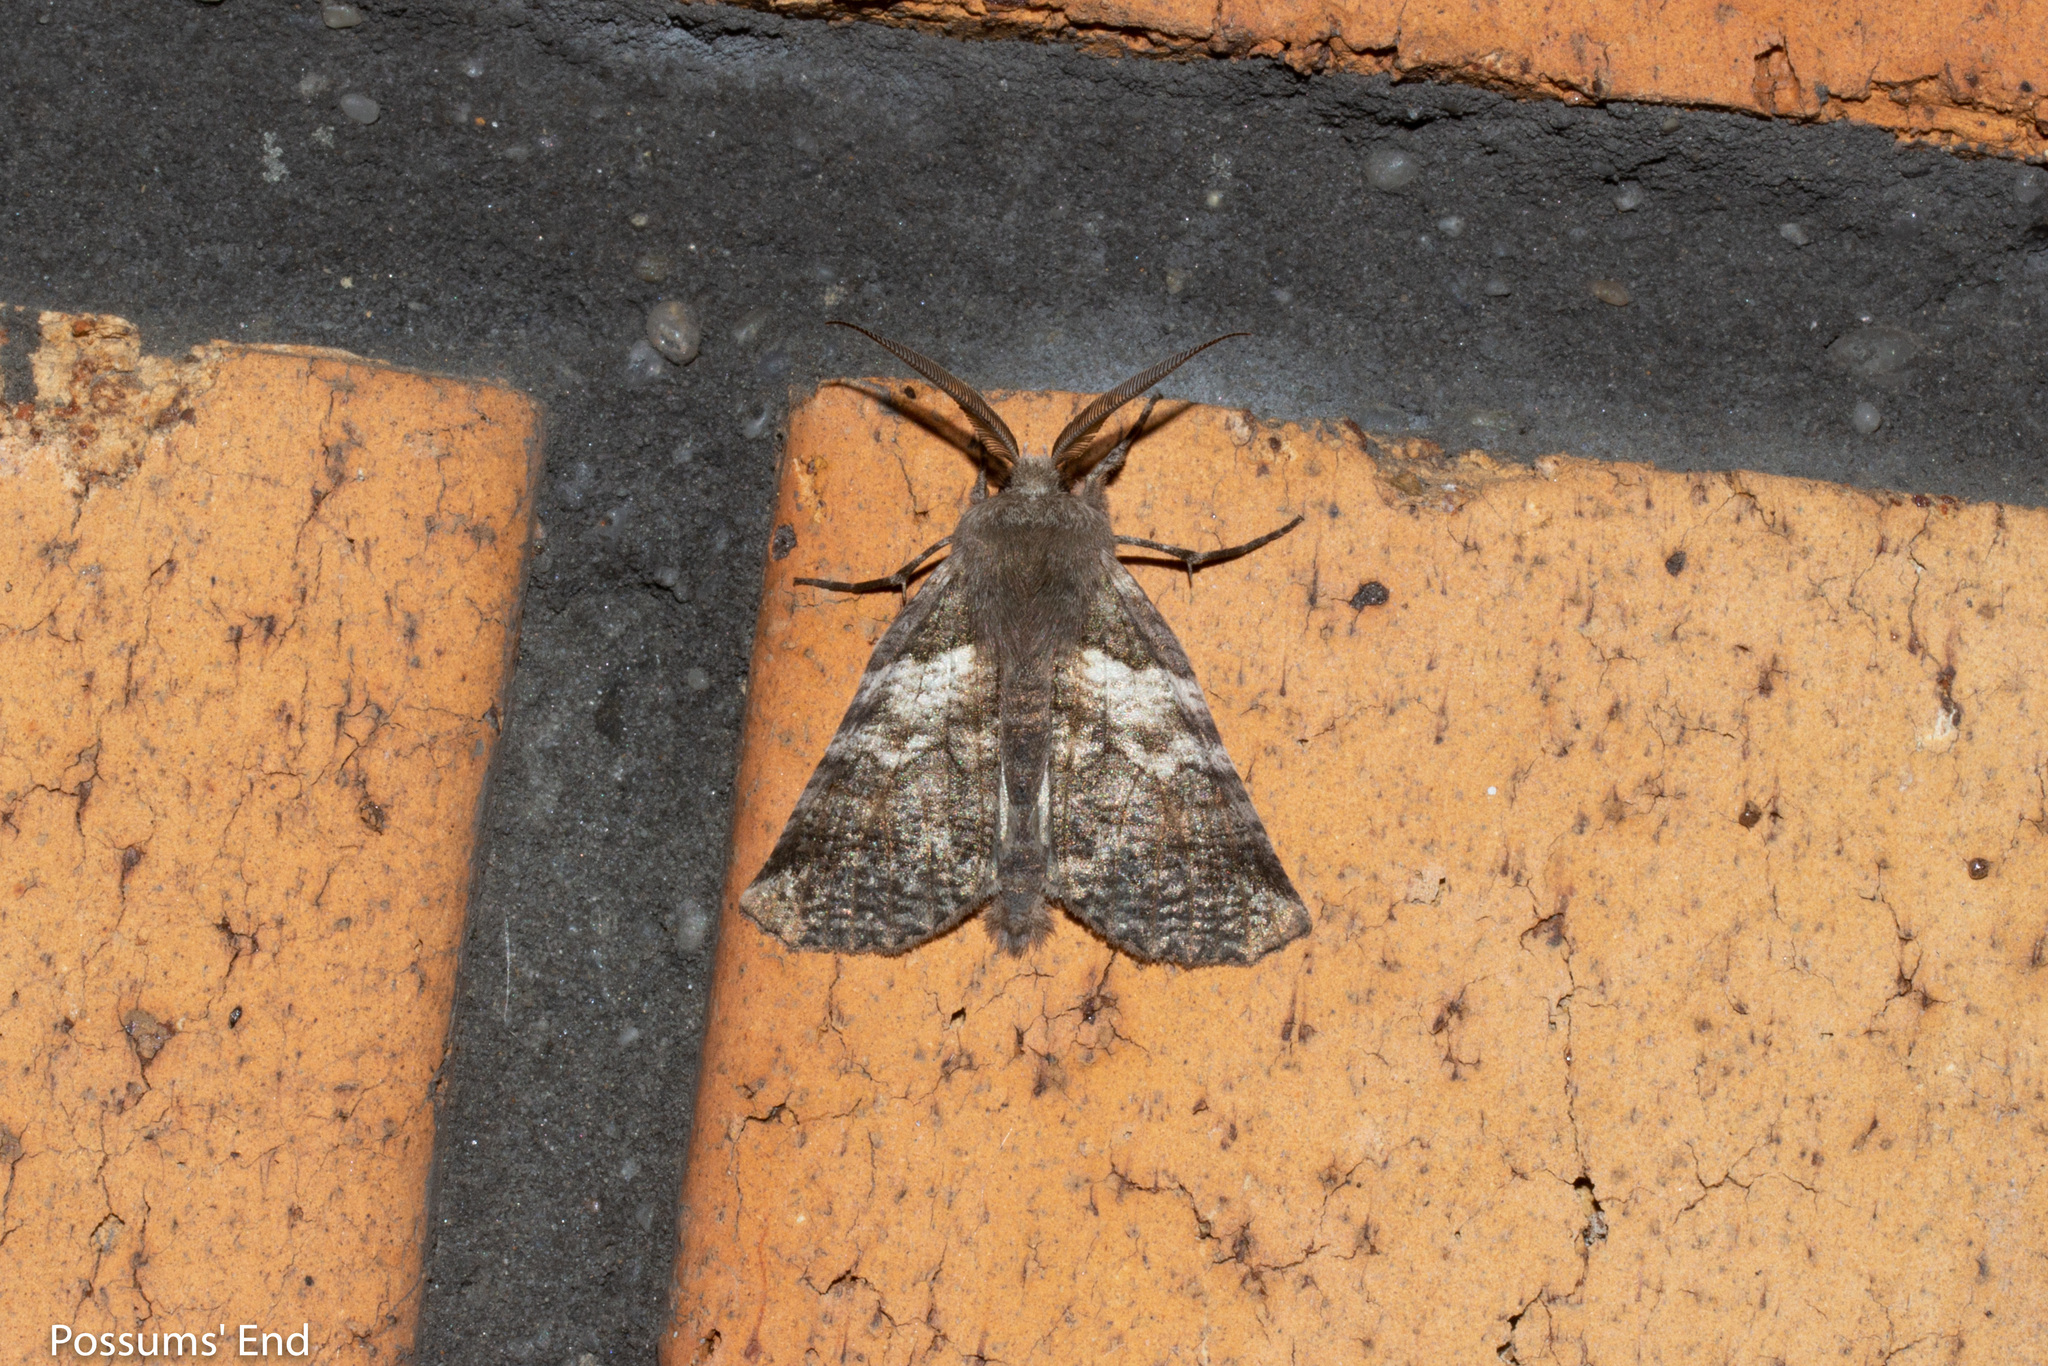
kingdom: Animalia
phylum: Arthropoda
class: Insecta
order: Lepidoptera
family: Geometridae
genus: Declana
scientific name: Declana
